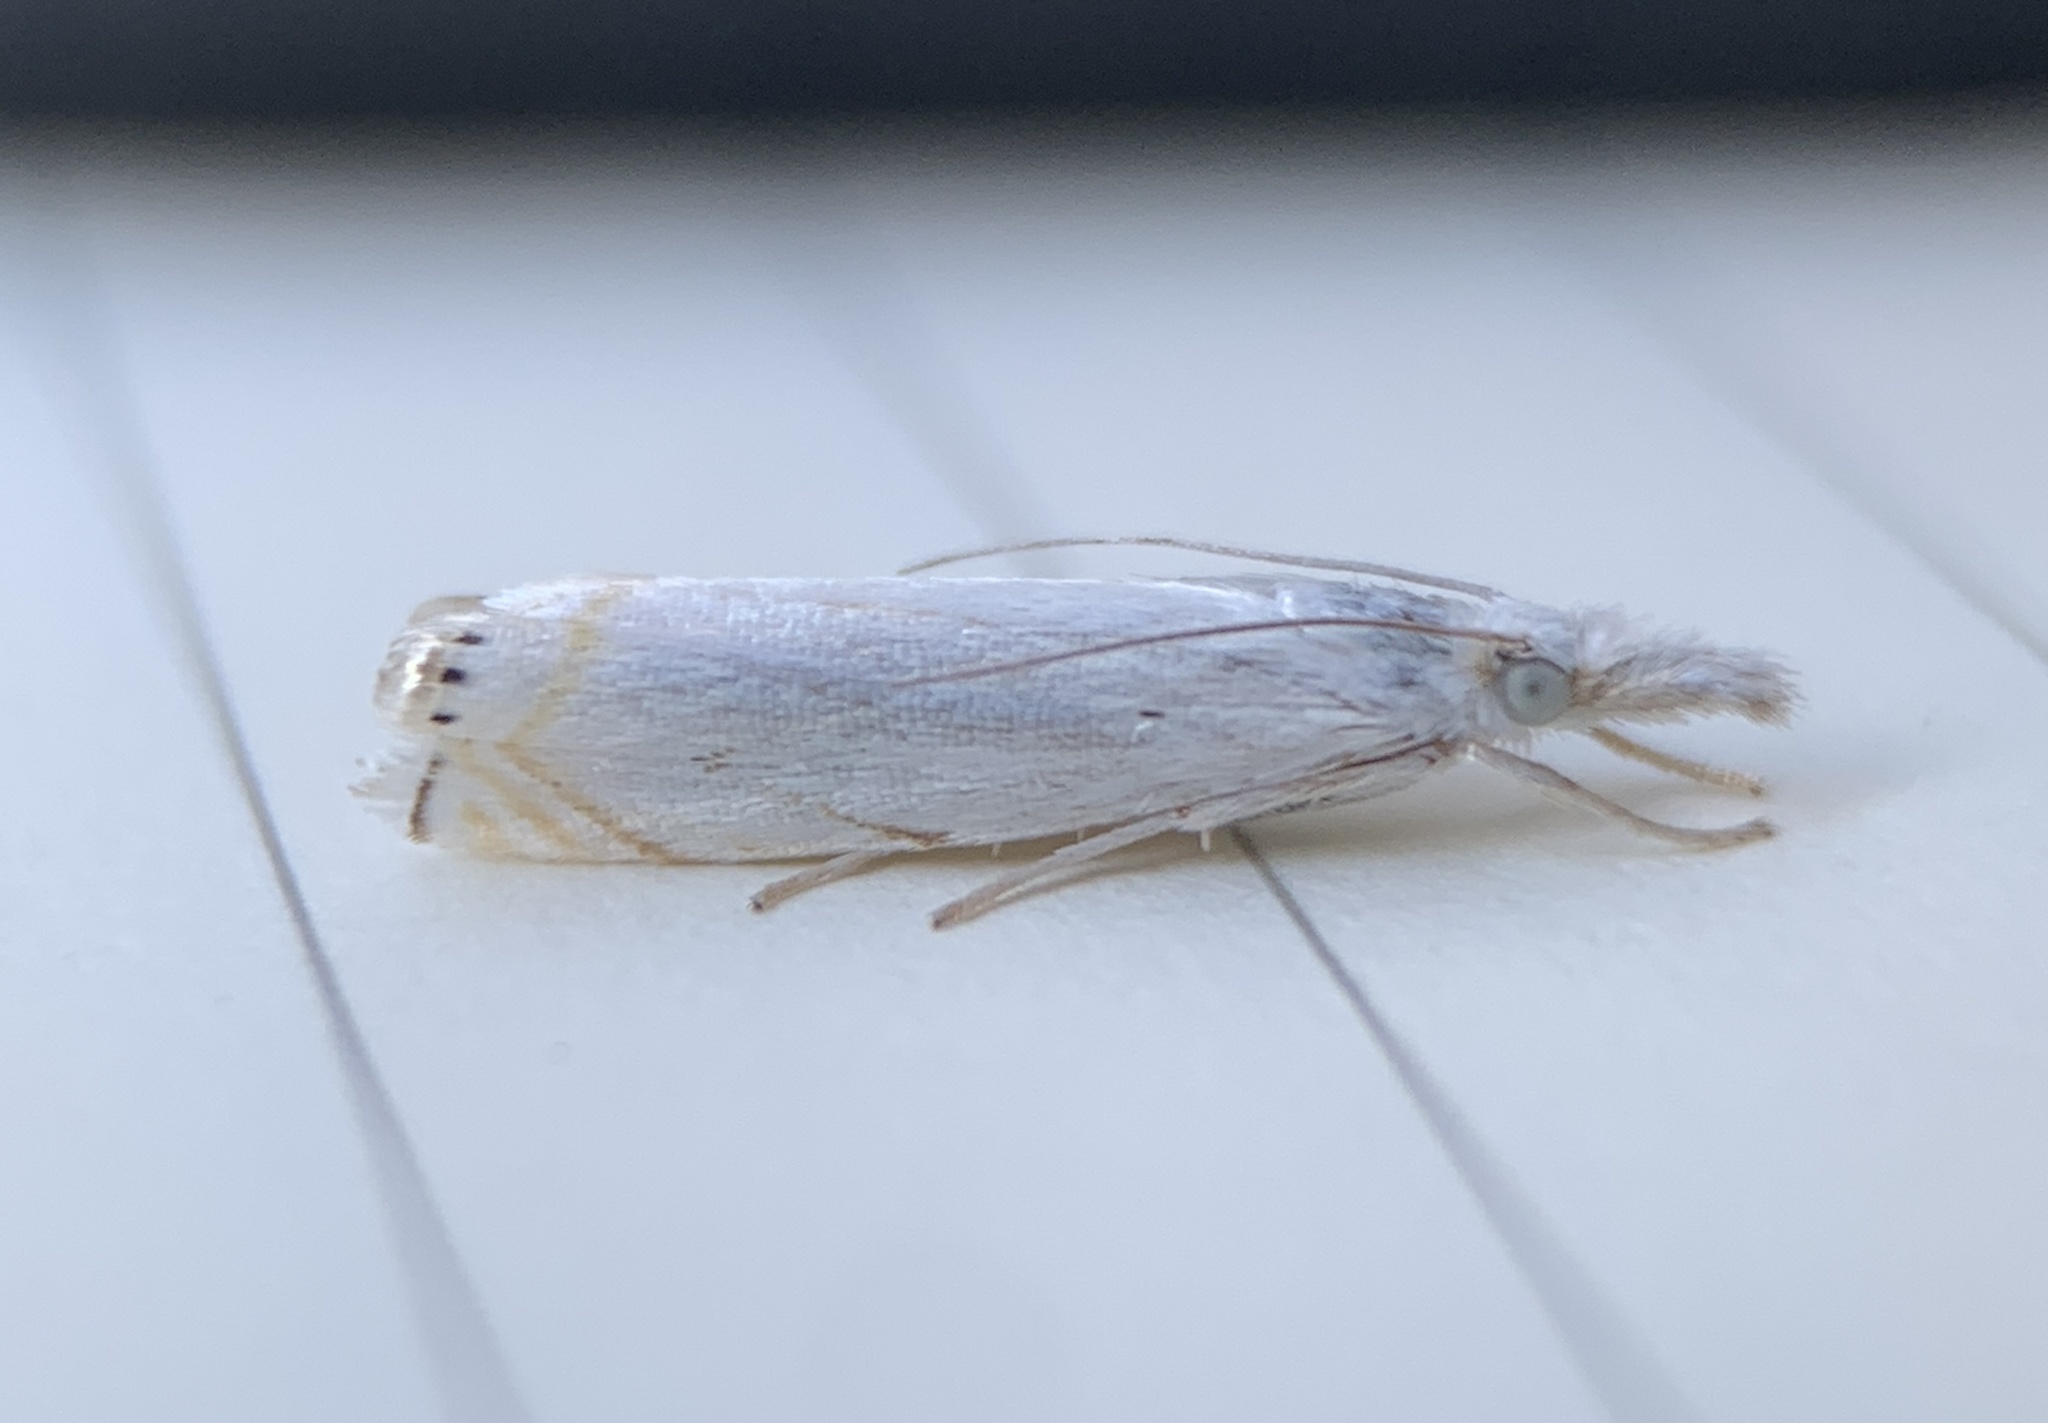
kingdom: Animalia
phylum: Arthropoda
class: Insecta
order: Lepidoptera
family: Crambidae
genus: Crambus
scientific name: Crambus albellus
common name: Small white grass-veneer
